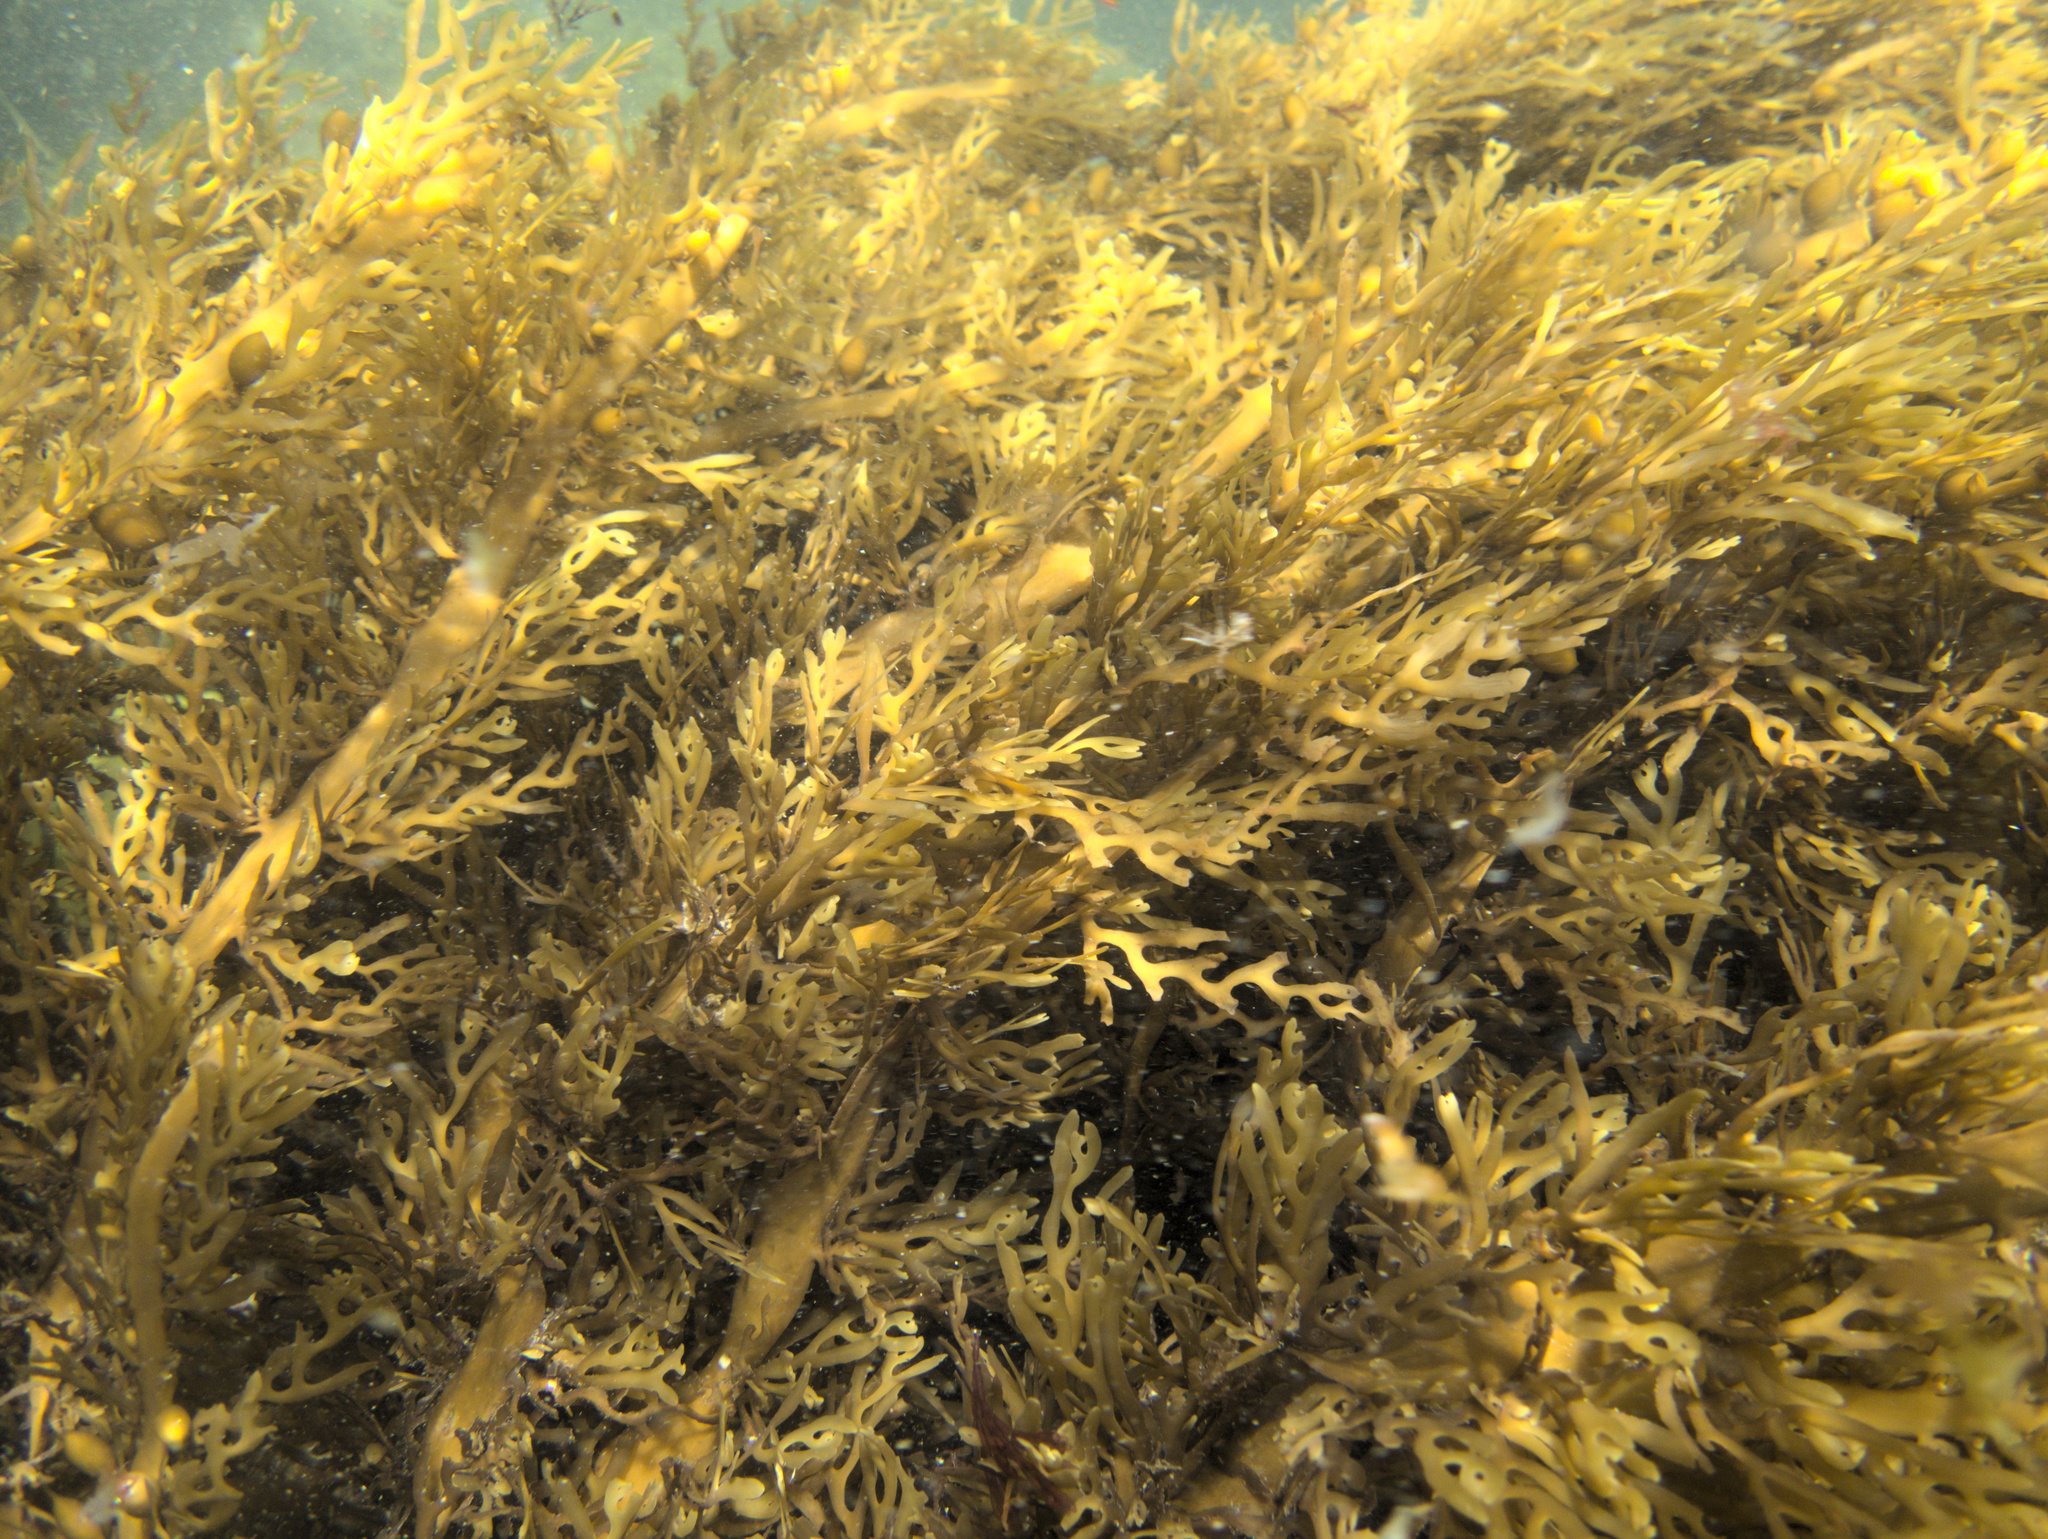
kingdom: Chromista
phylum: Ochrophyta
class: Phaeophyceae
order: Fucales
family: Xiphophoraceae
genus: Xiphophora
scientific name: Xiphophora chondrophylla
